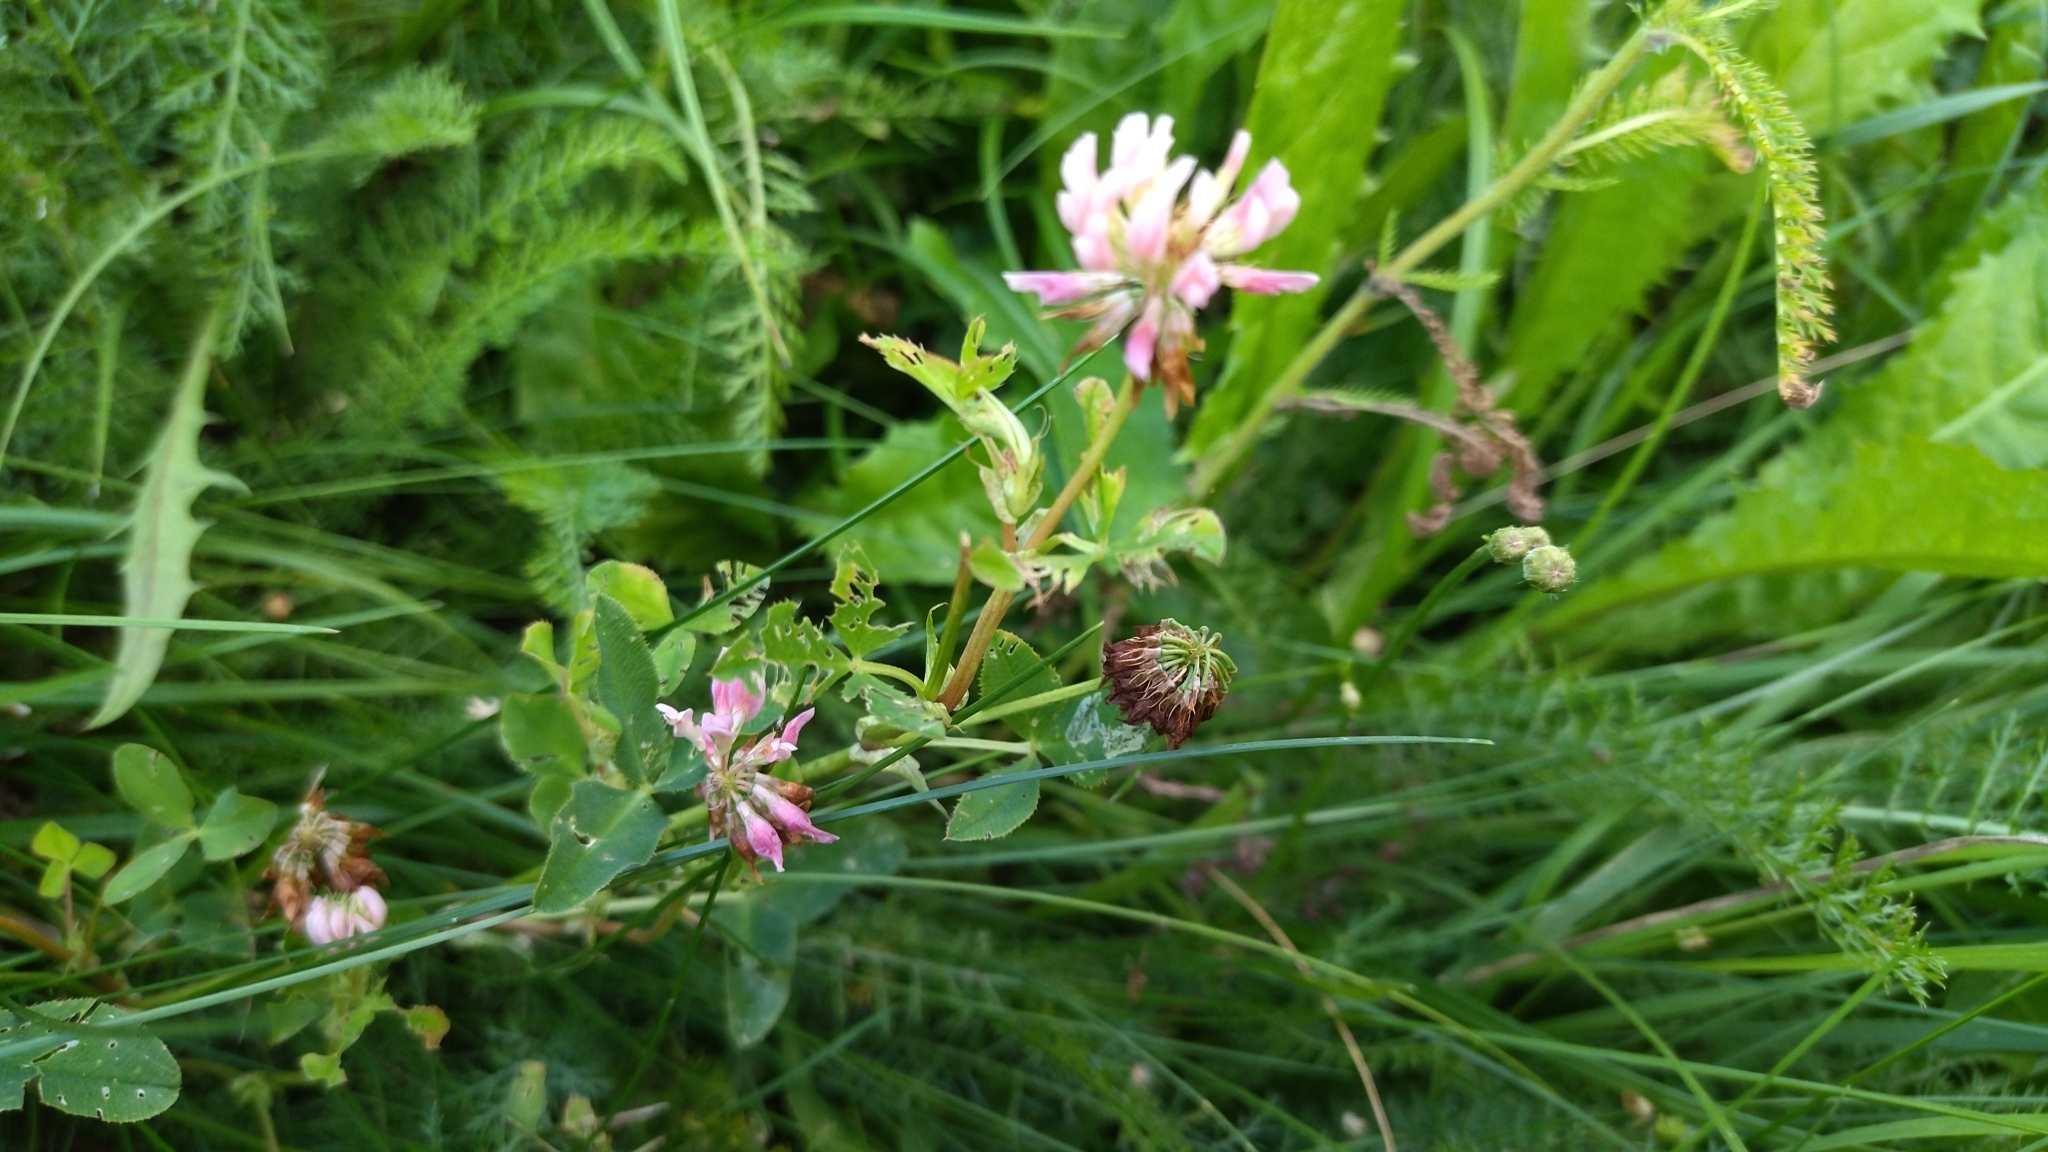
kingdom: Plantae
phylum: Tracheophyta
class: Magnoliopsida
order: Fabales
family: Fabaceae
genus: Trifolium
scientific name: Trifolium hybridum
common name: Alsike clover
